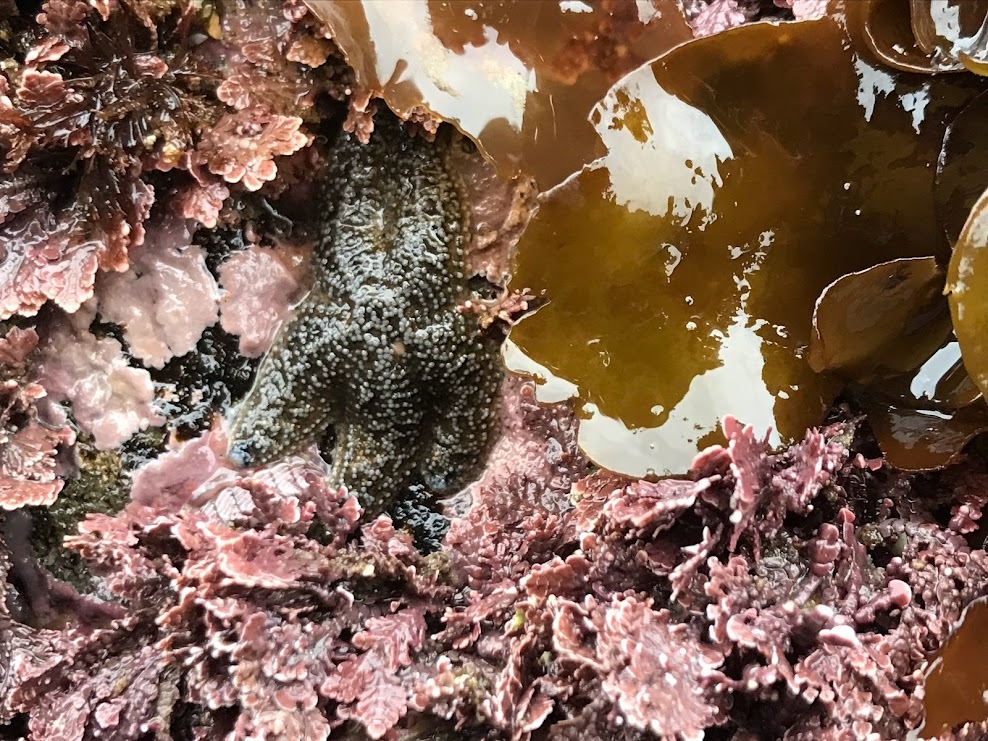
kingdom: Animalia
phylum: Echinodermata
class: Asteroidea
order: Forcipulatida
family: Asteriidae
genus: Evasterias
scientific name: Evasterias troschelii
